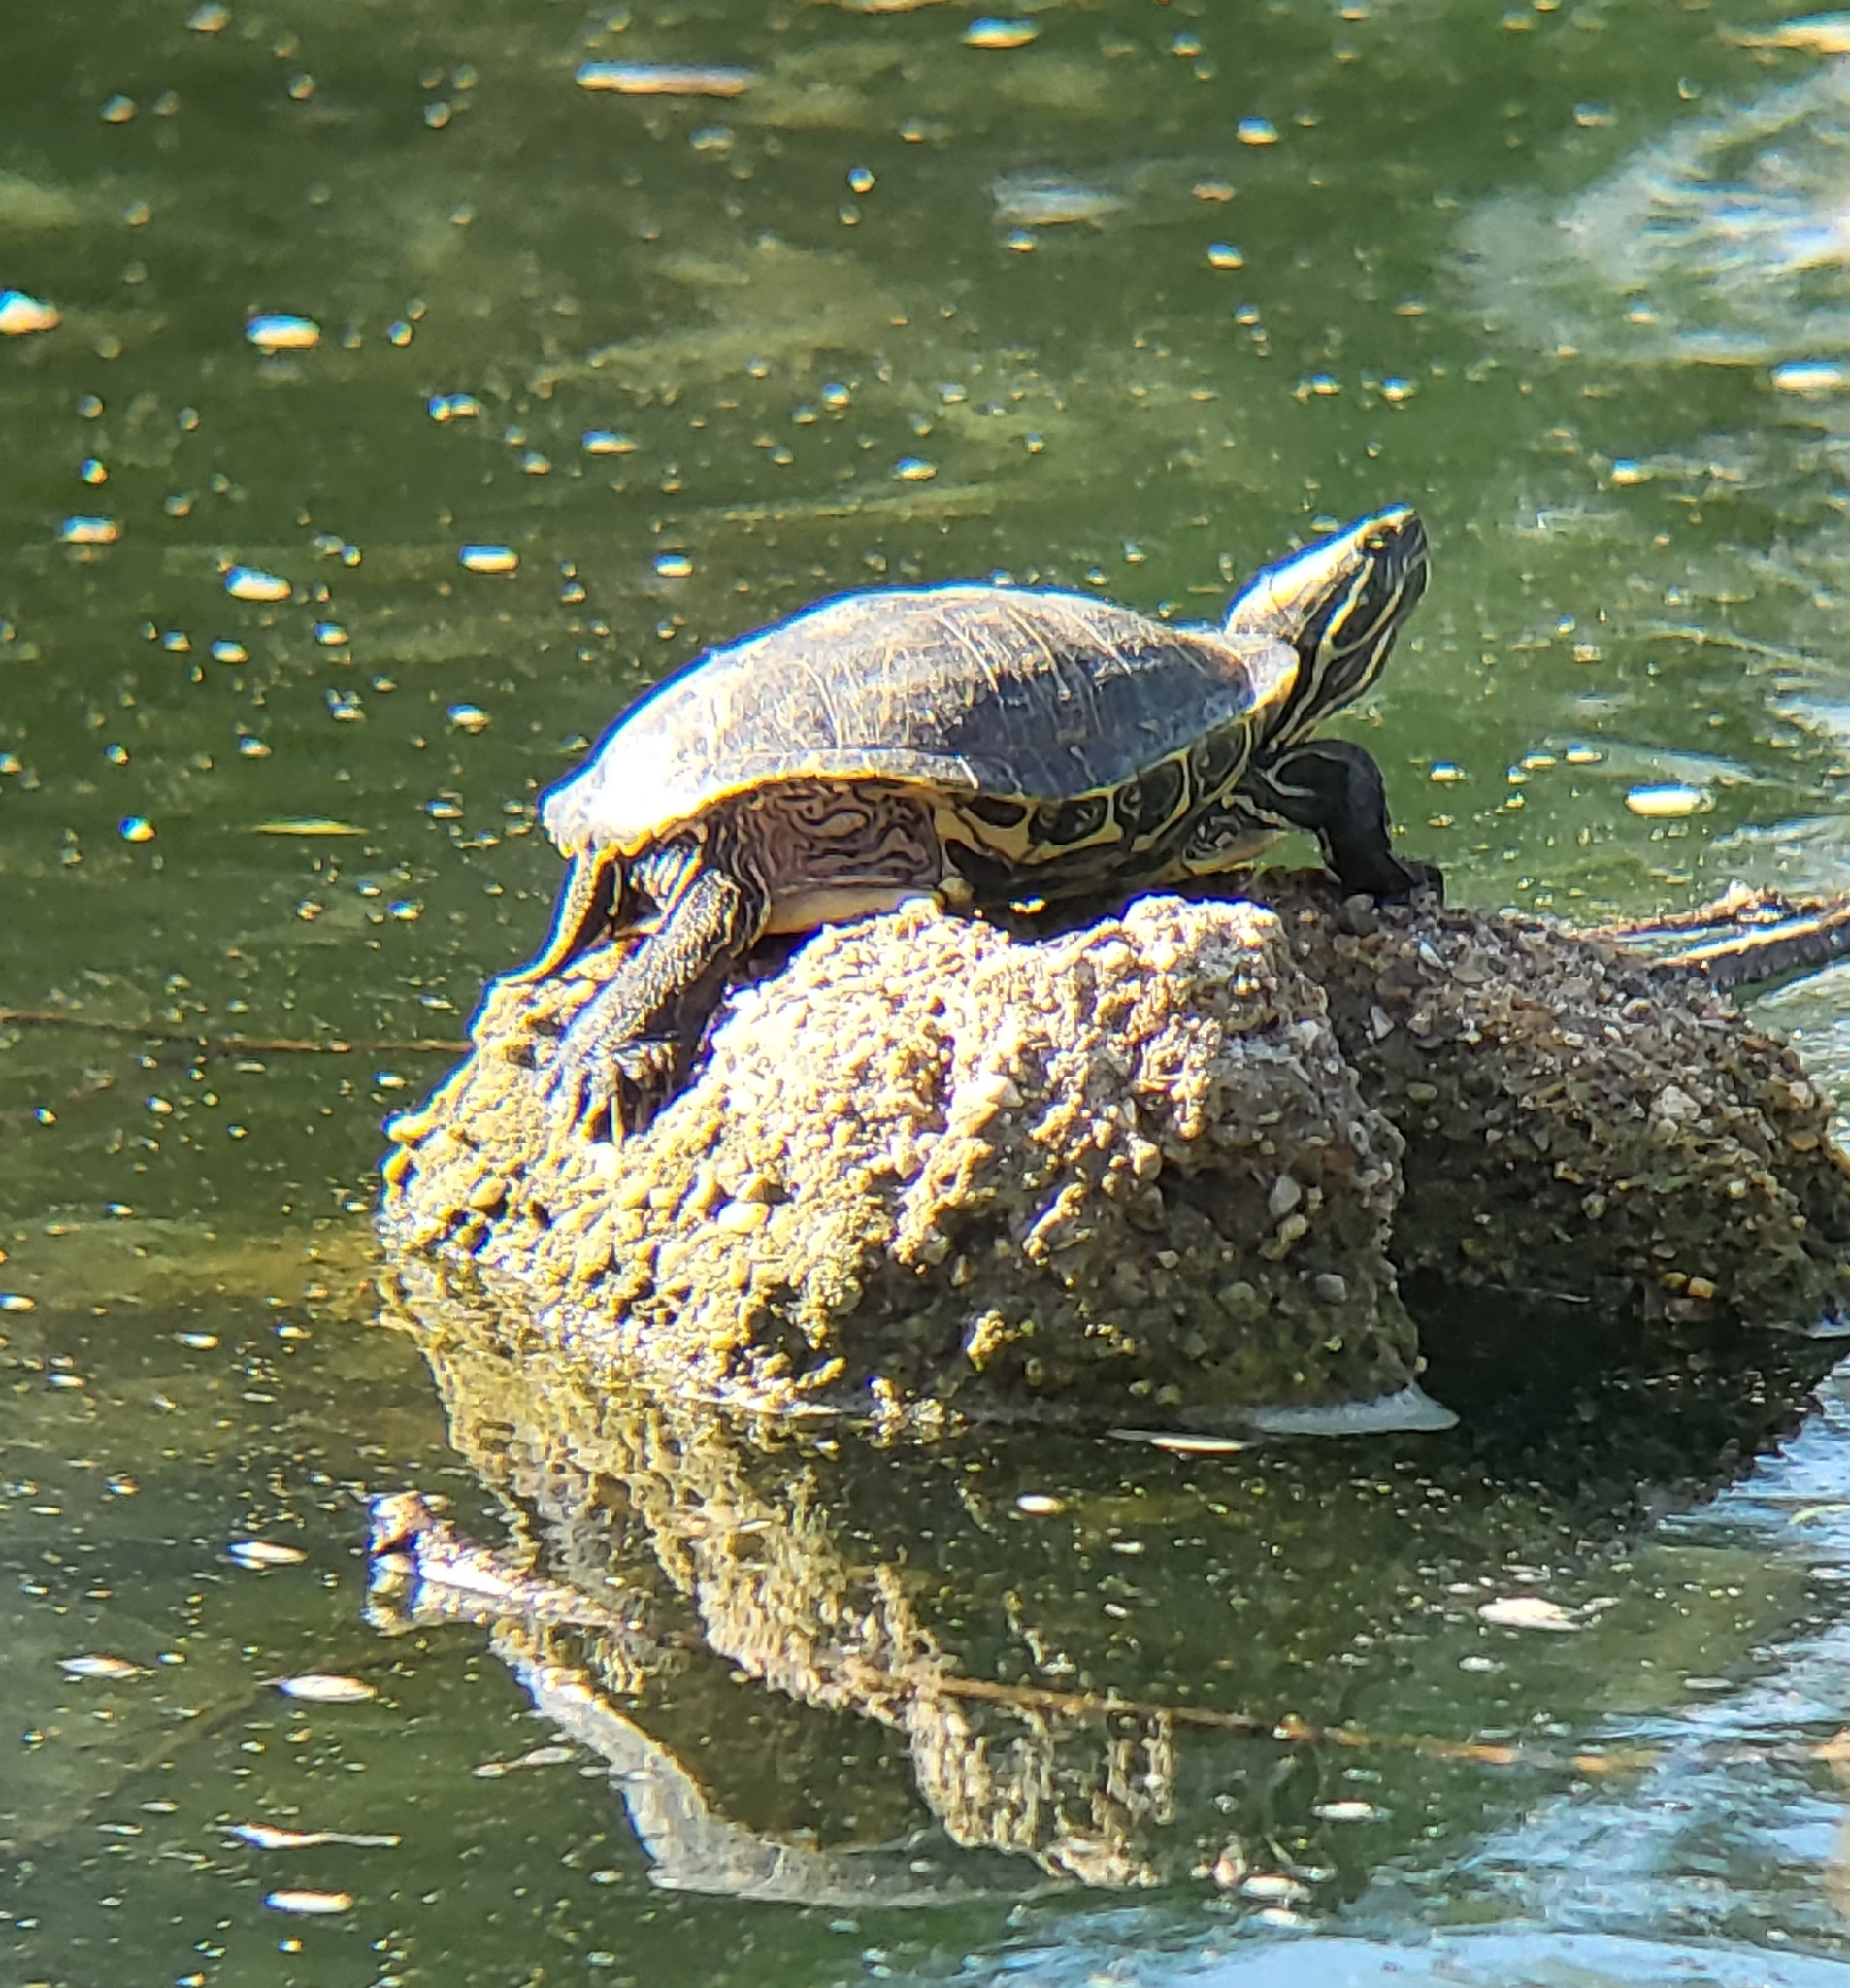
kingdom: Animalia
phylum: Chordata
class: Testudines
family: Emydidae
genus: Trachemys
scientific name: Trachemys scripta
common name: Slider
